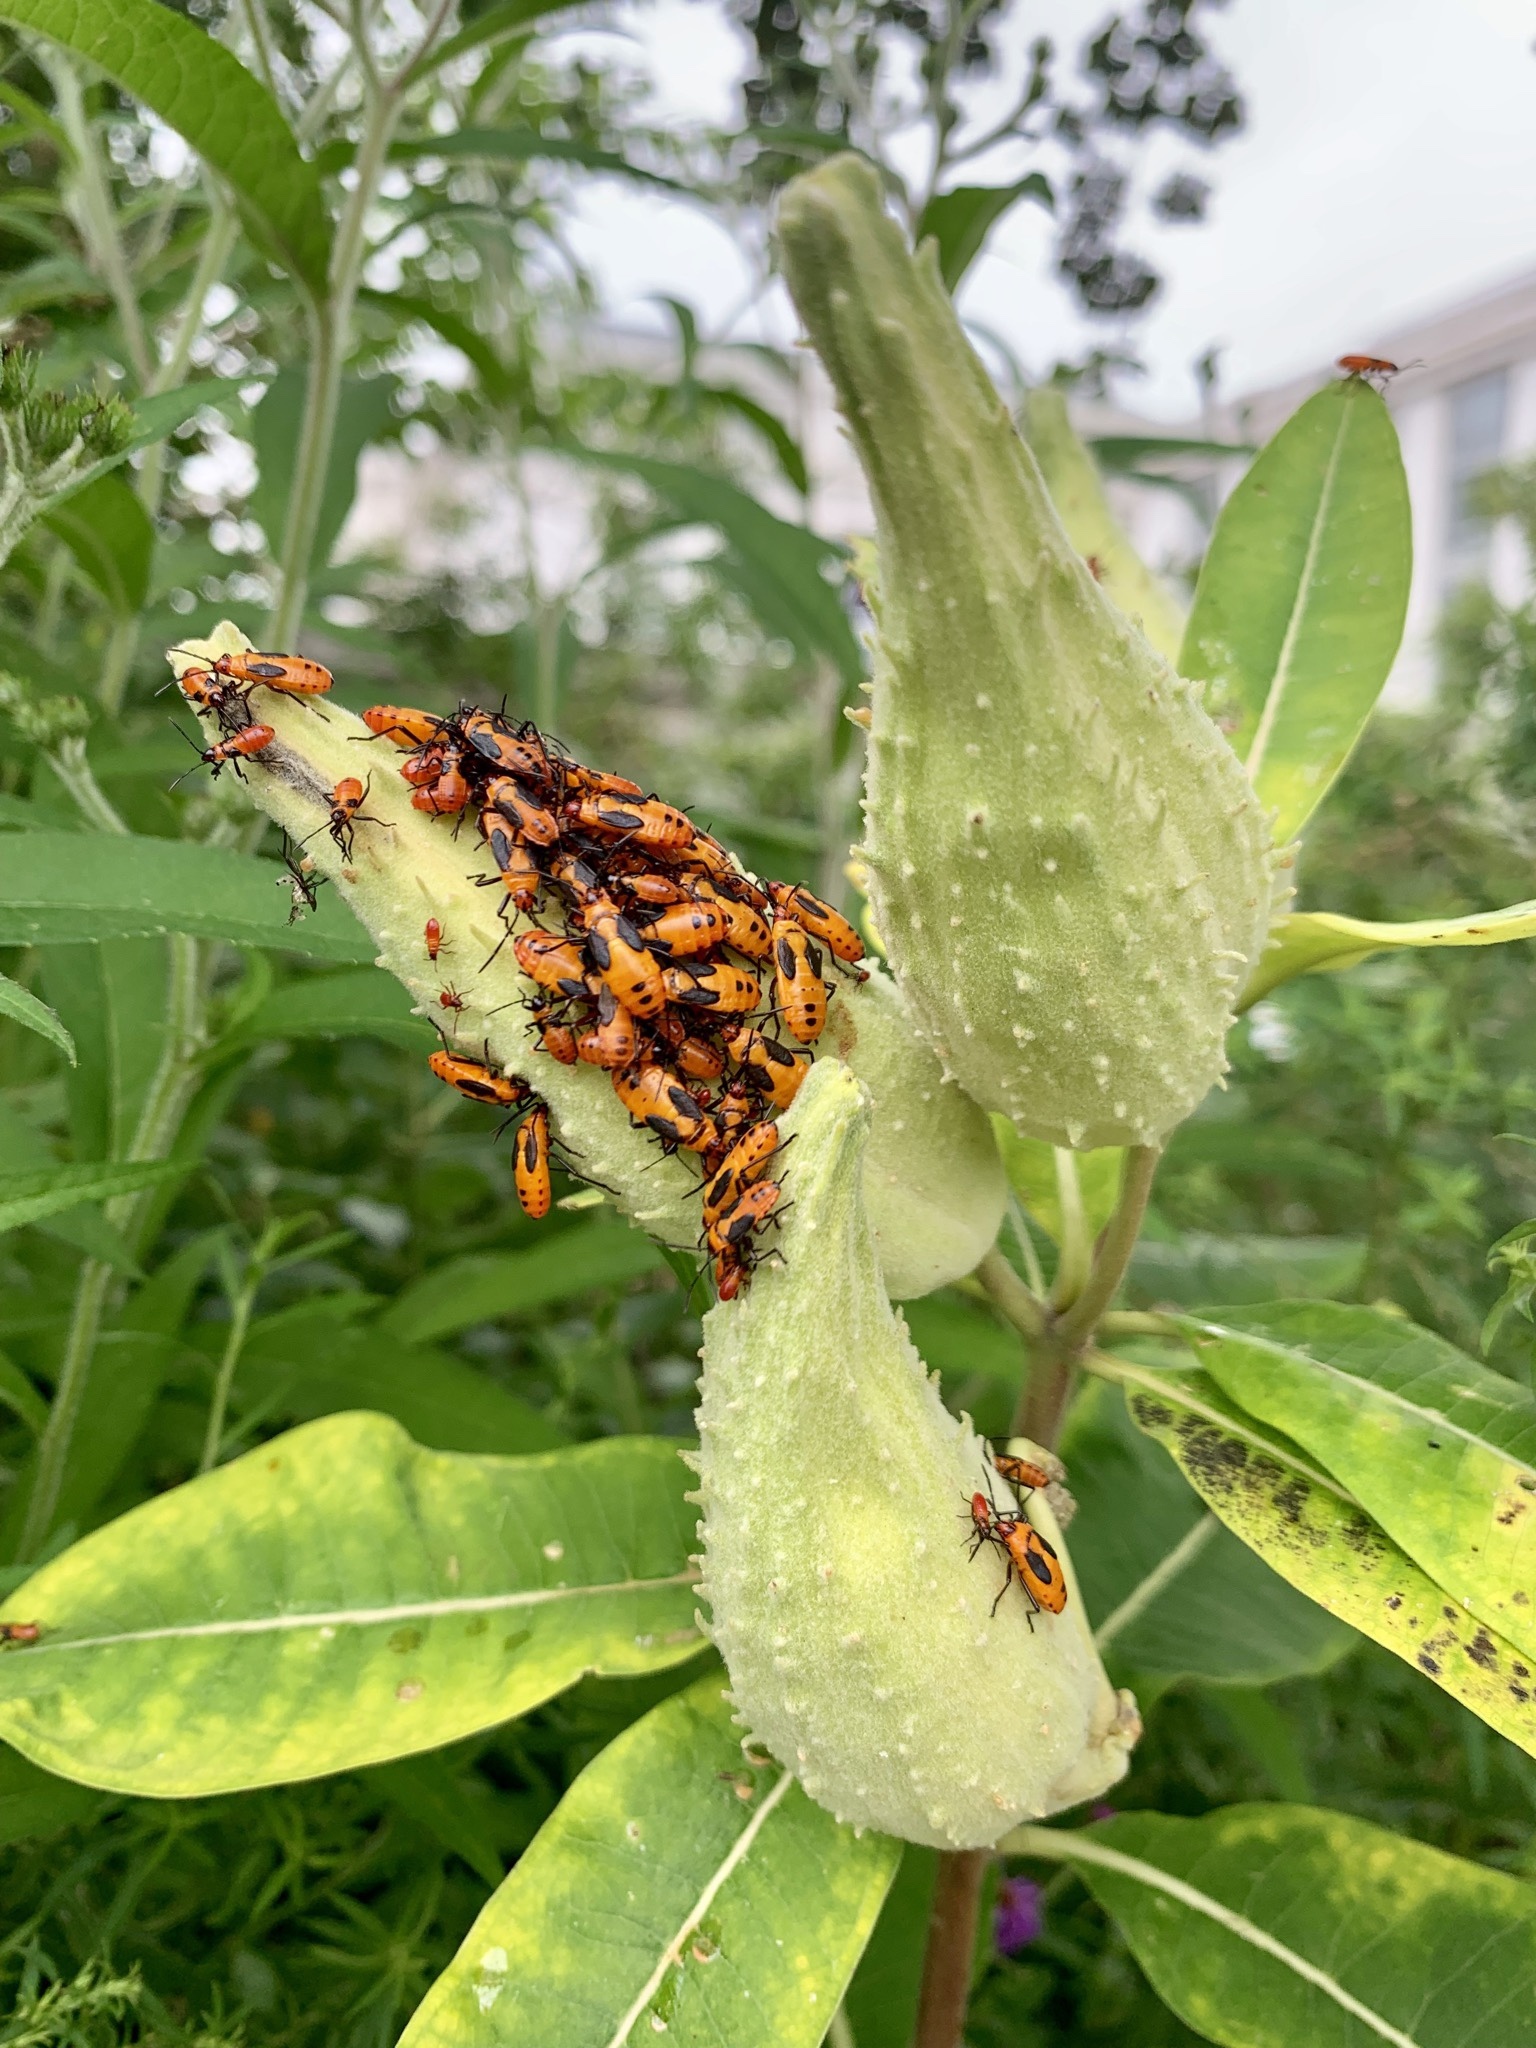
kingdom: Animalia
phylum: Arthropoda
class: Insecta
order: Hemiptera
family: Lygaeidae
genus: Oncopeltus
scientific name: Oncopeltus fasciatus
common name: Large milkweed bug
